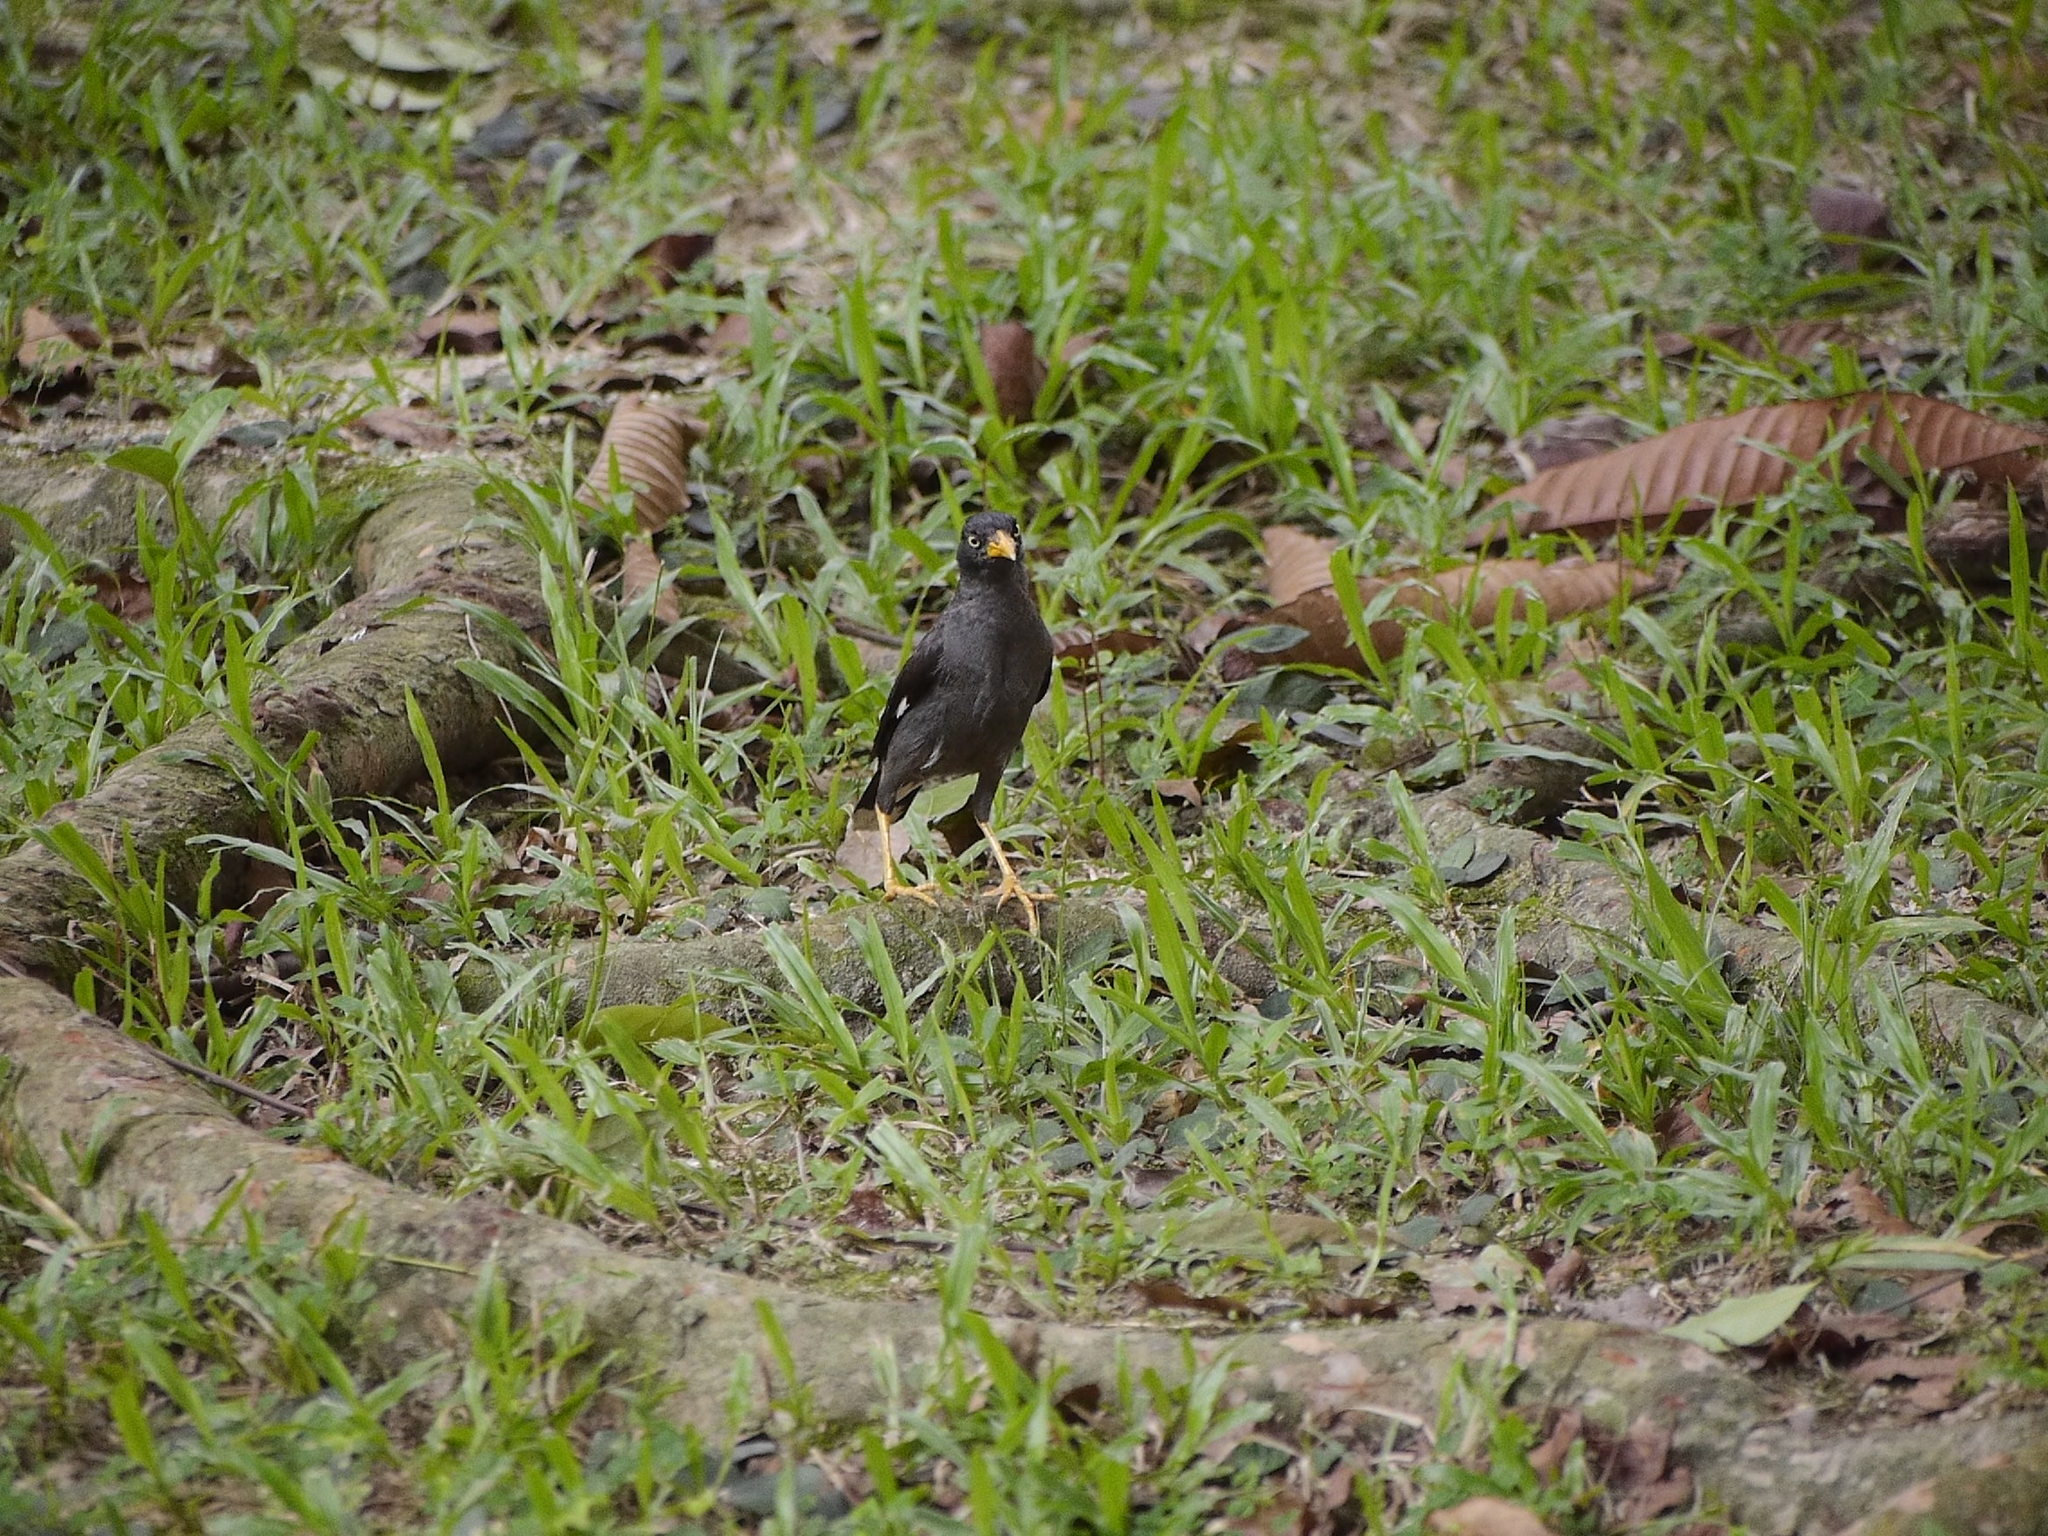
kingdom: Animalia
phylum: Chordata
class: Aves
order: Passeriformes
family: Sturnidae
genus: Acridotheres
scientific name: Acridotheres javanicus
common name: Javan myna
